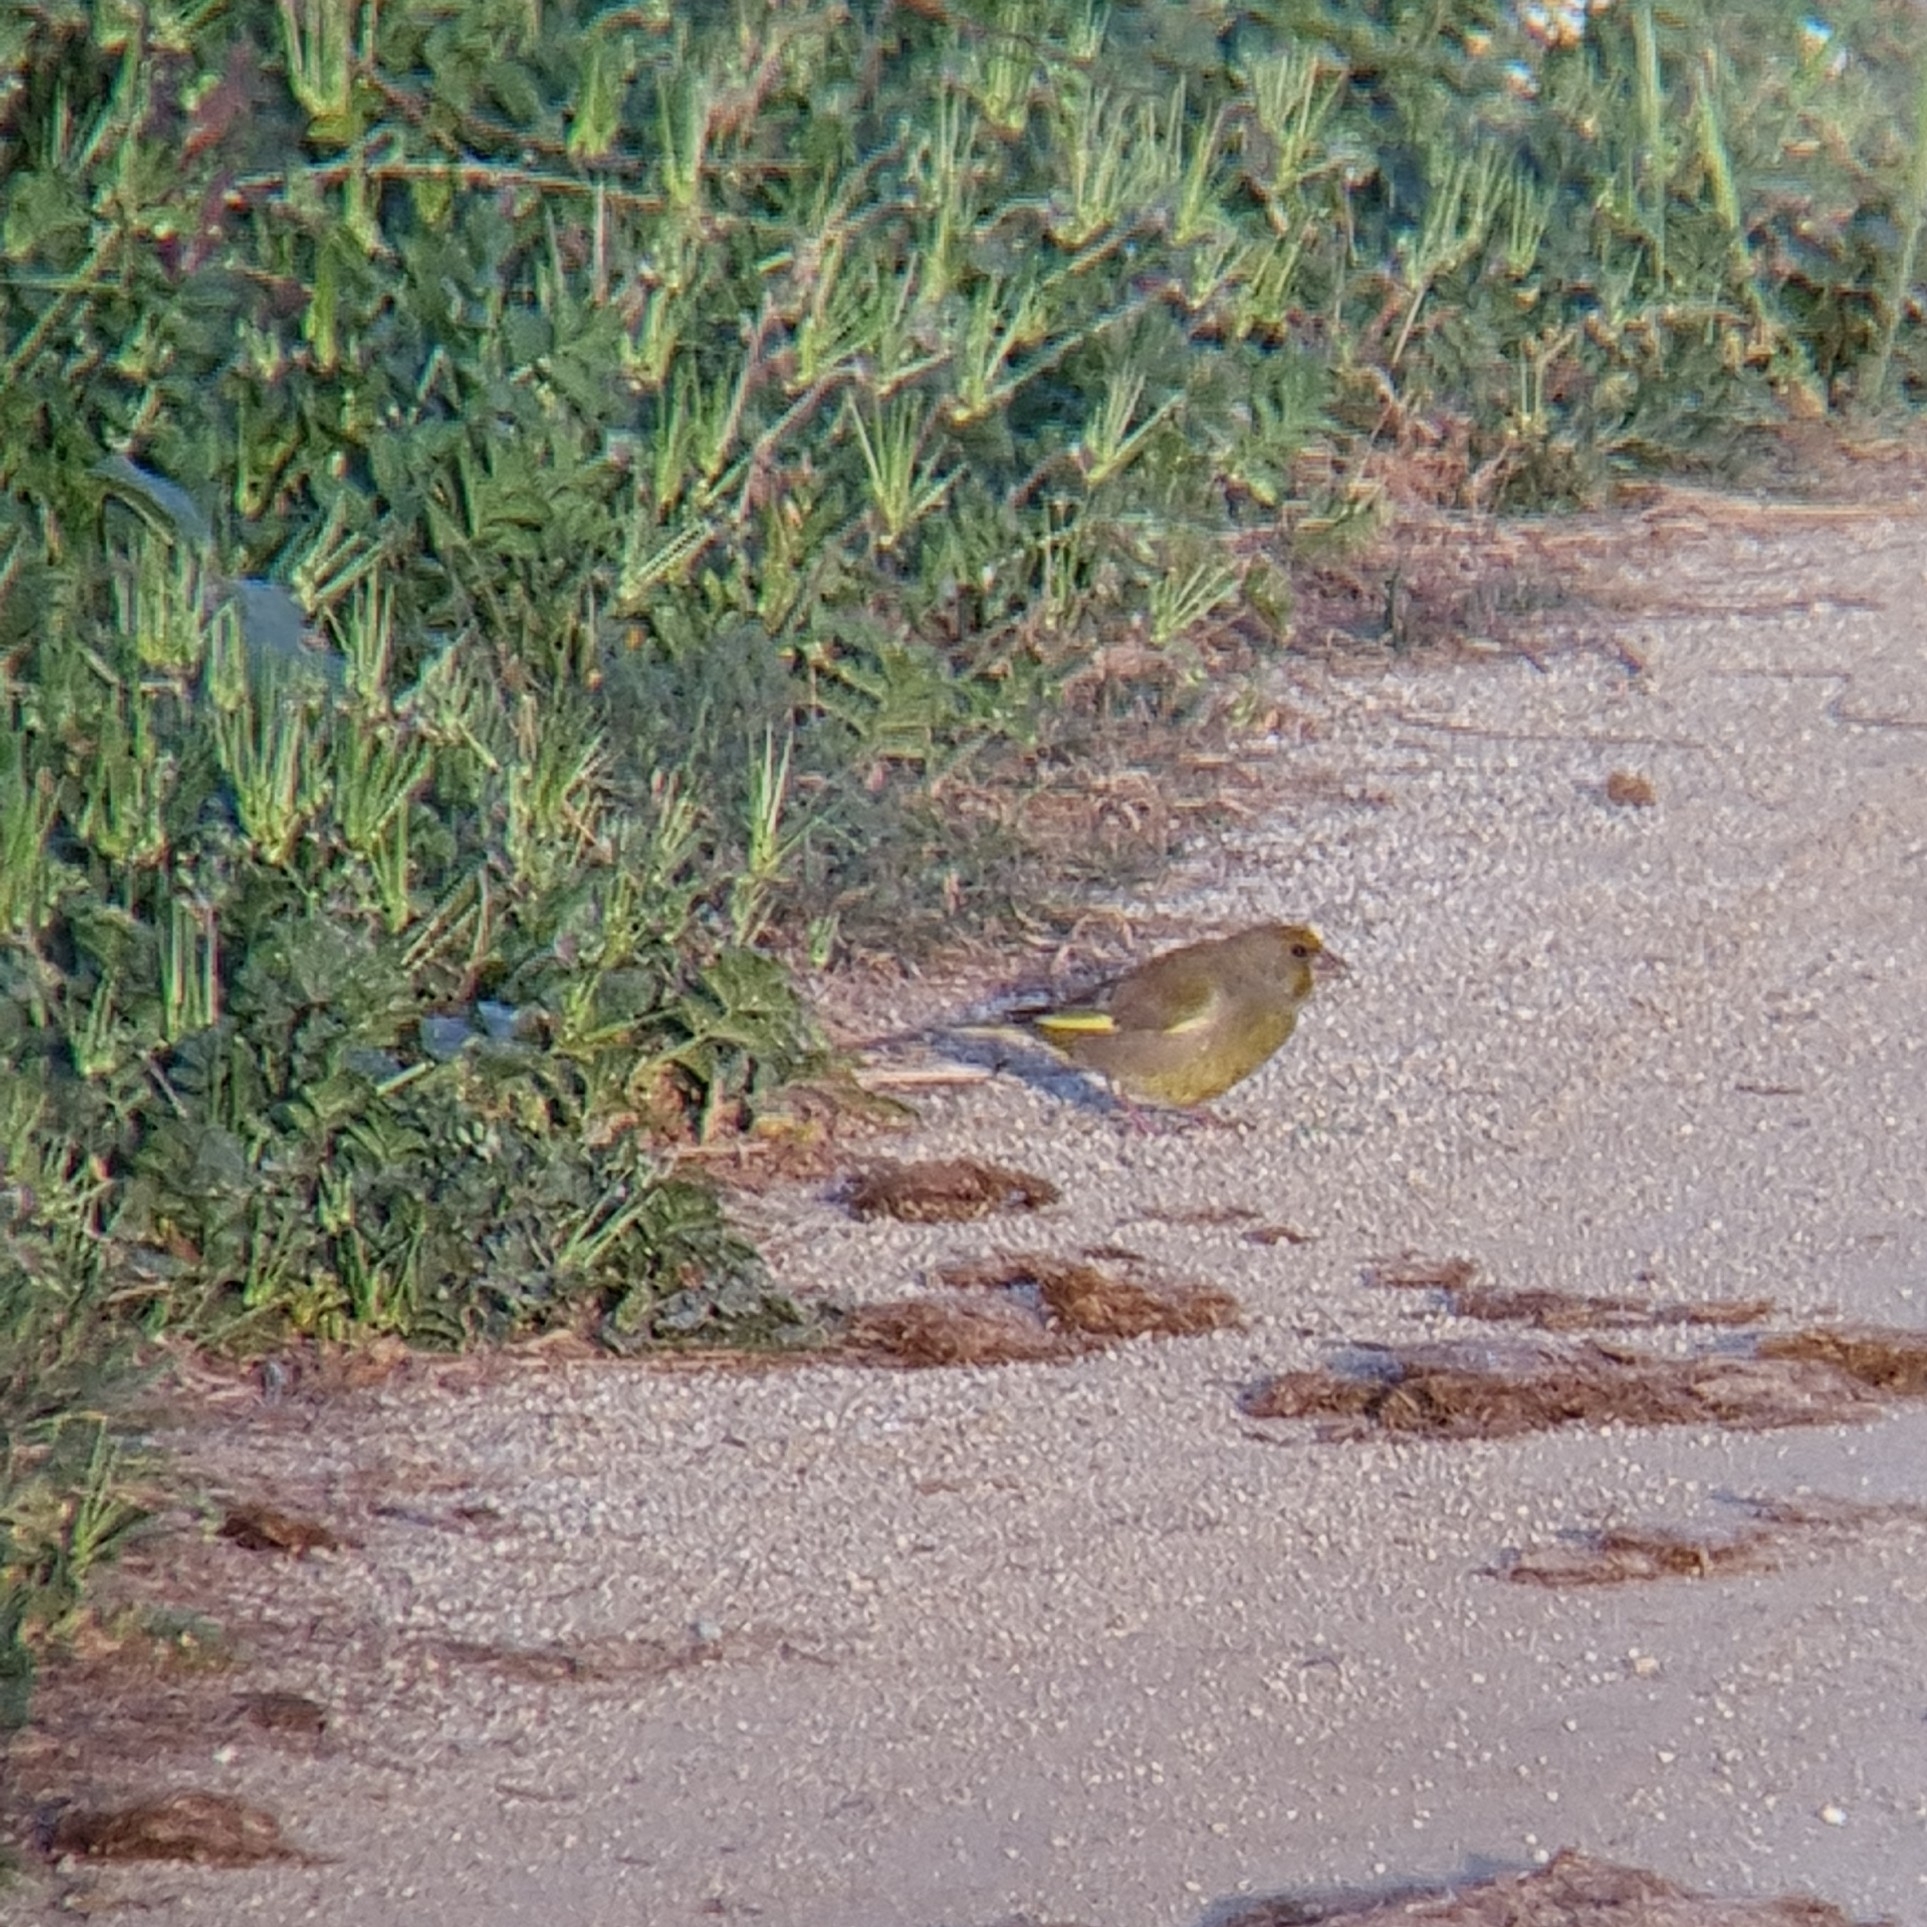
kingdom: Plantae
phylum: Tracheophyta
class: Liliopsida
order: Poales
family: Poaceae
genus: Chloris
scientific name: Chloris chloris
